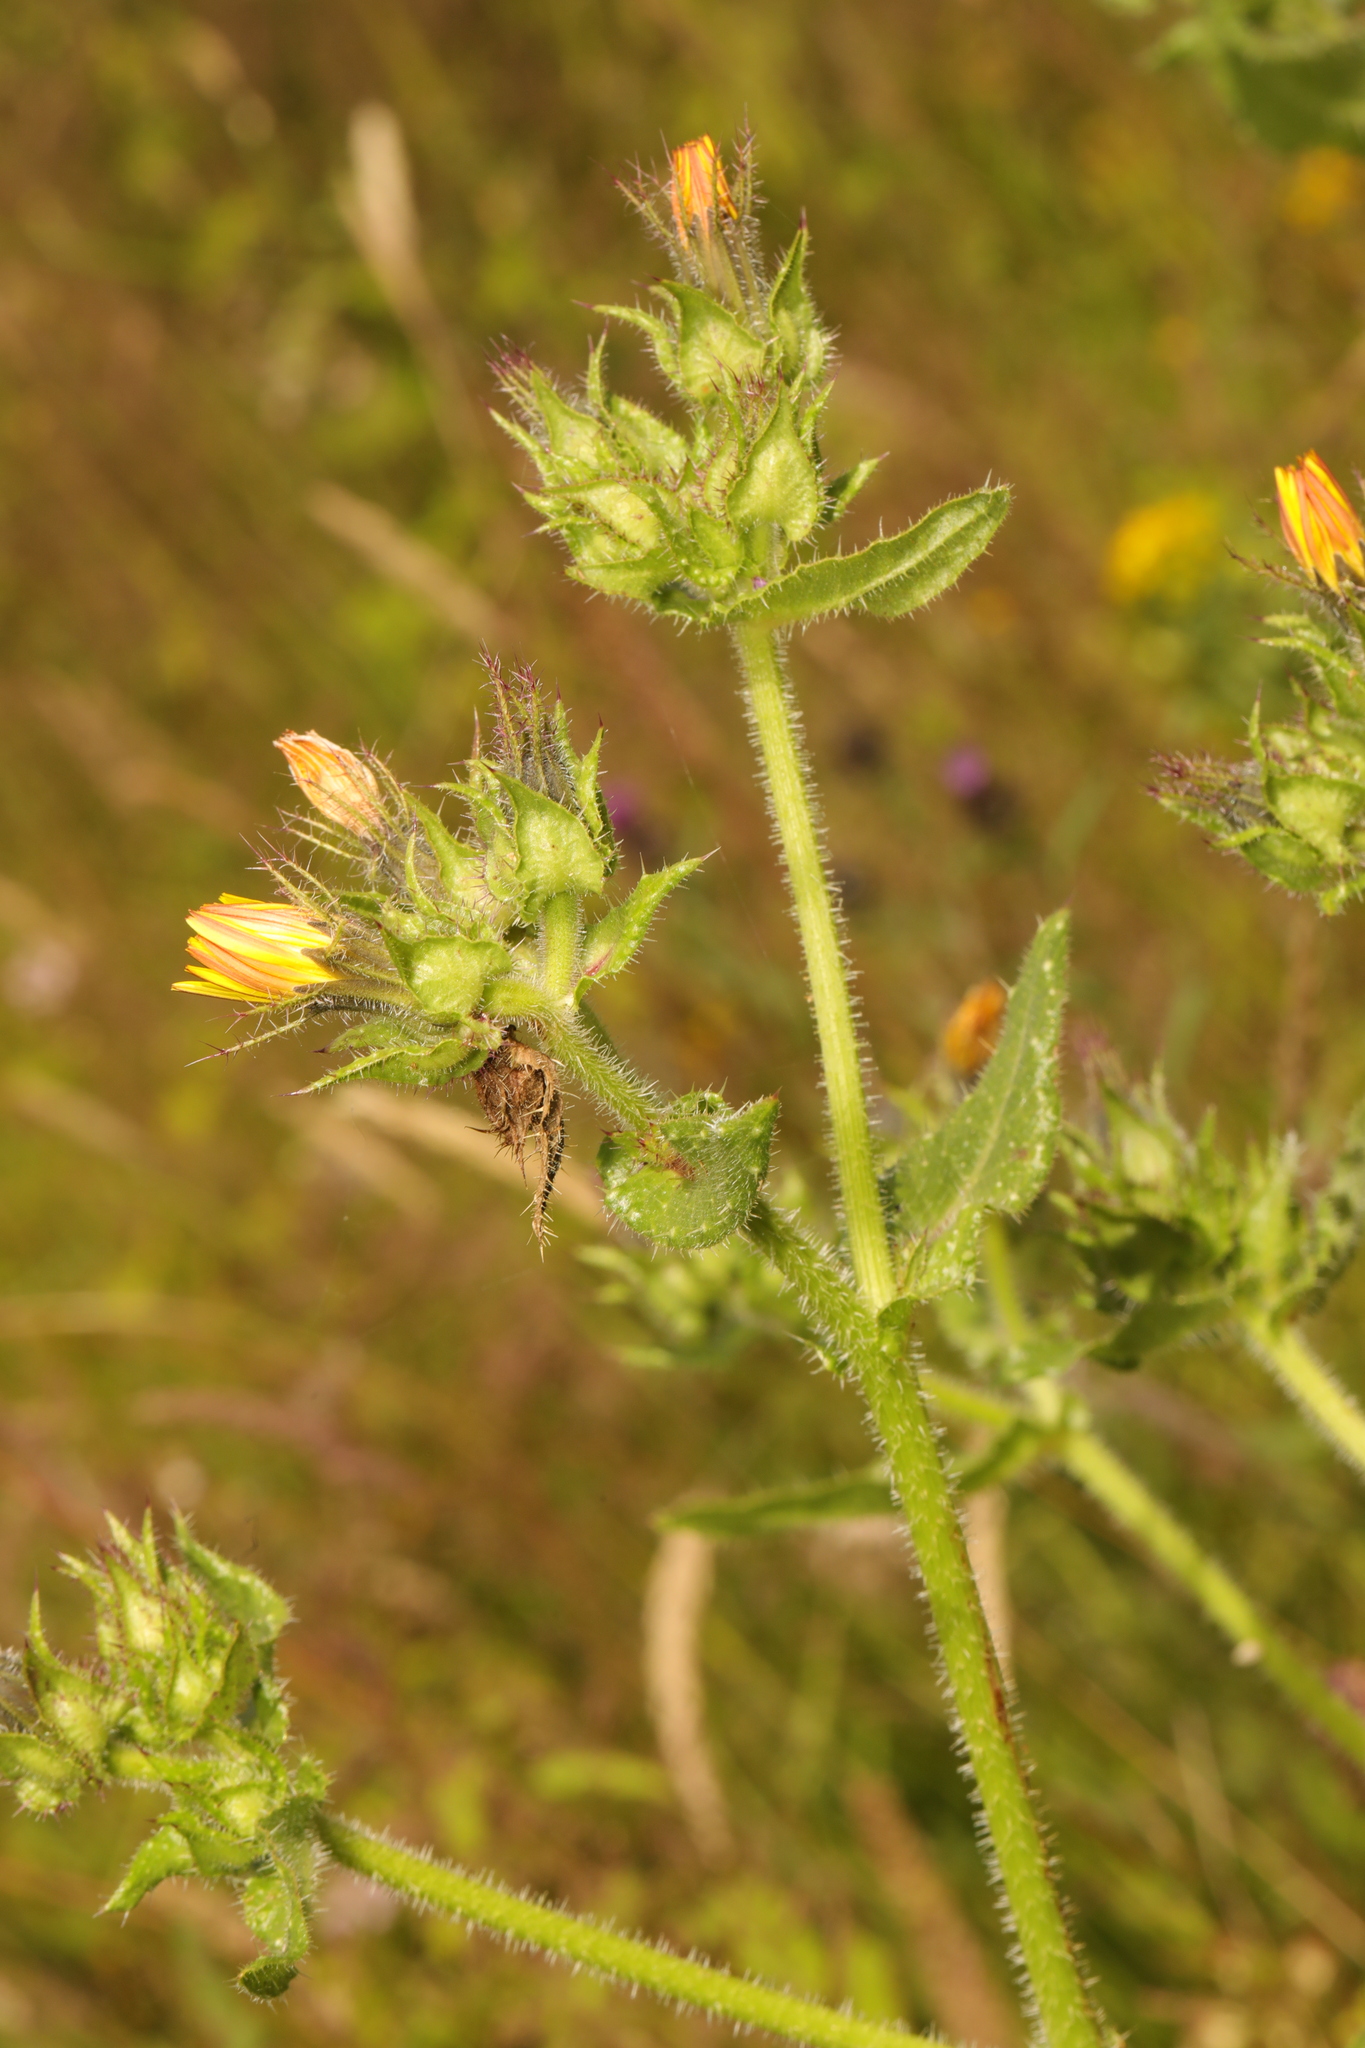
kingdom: Plantae
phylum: Tracheophyta
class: Magnoliopsida
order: Asterales
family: Asteraceae
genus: Helminthotheca
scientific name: Helminthotheca echioides
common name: Ox-tongue
